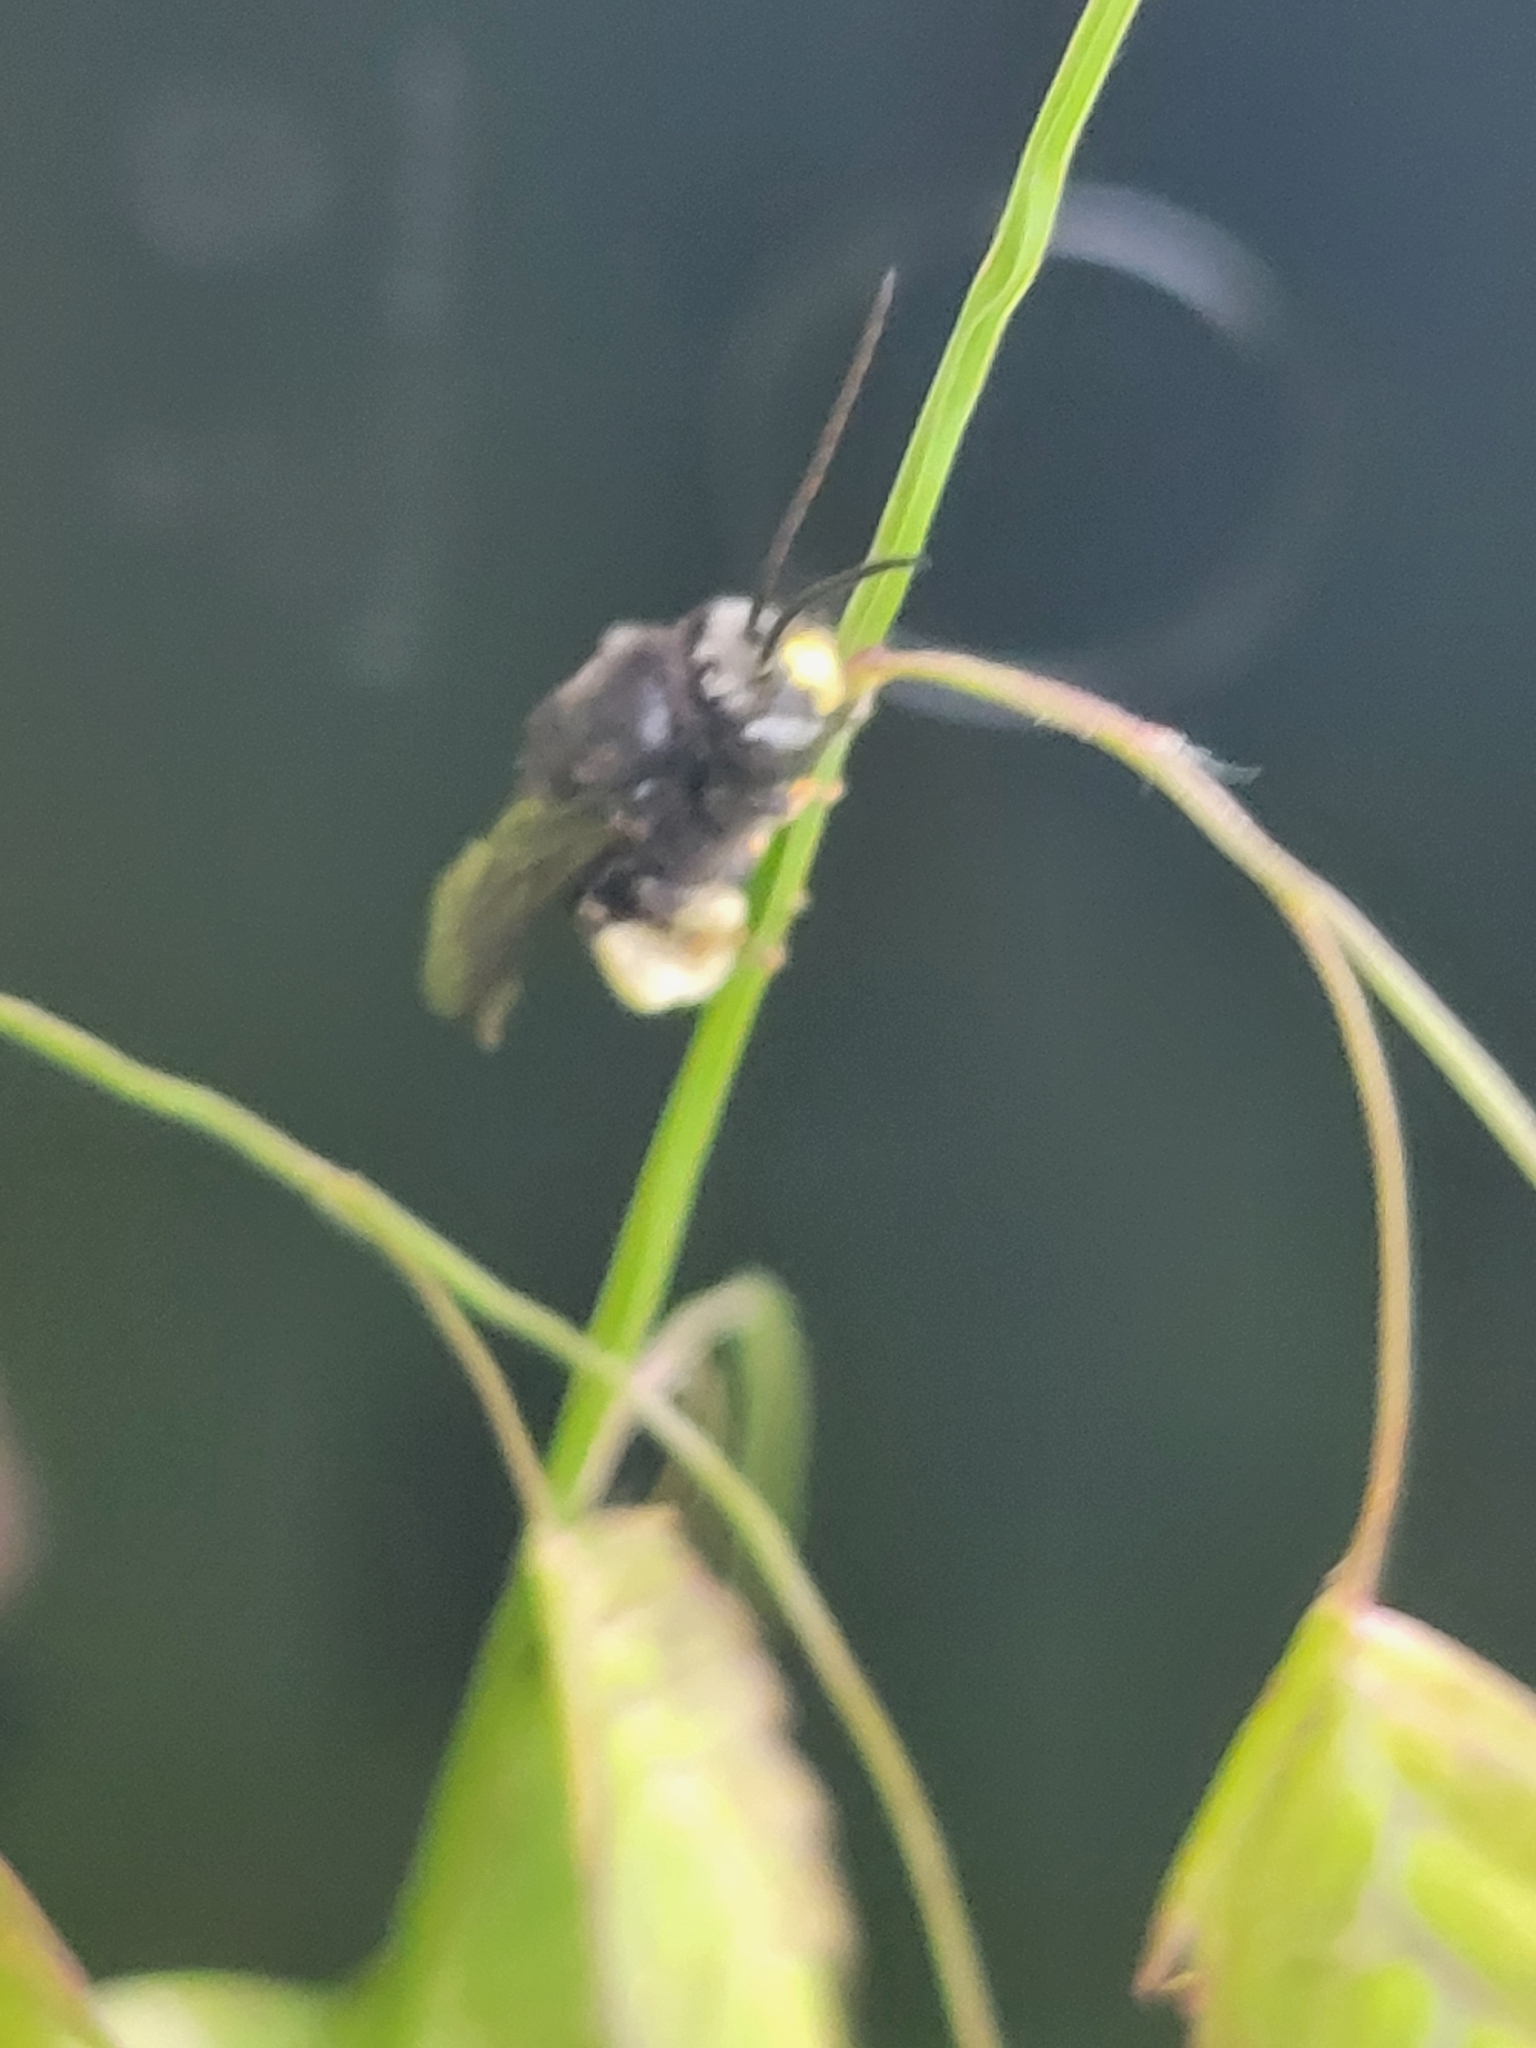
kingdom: Animalia
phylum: Arthropoda
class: Insecta
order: Hymenoptera
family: Apidae
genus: Melissodes
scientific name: Melissodes bimaculatus
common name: Two-spotted long-horned bee
